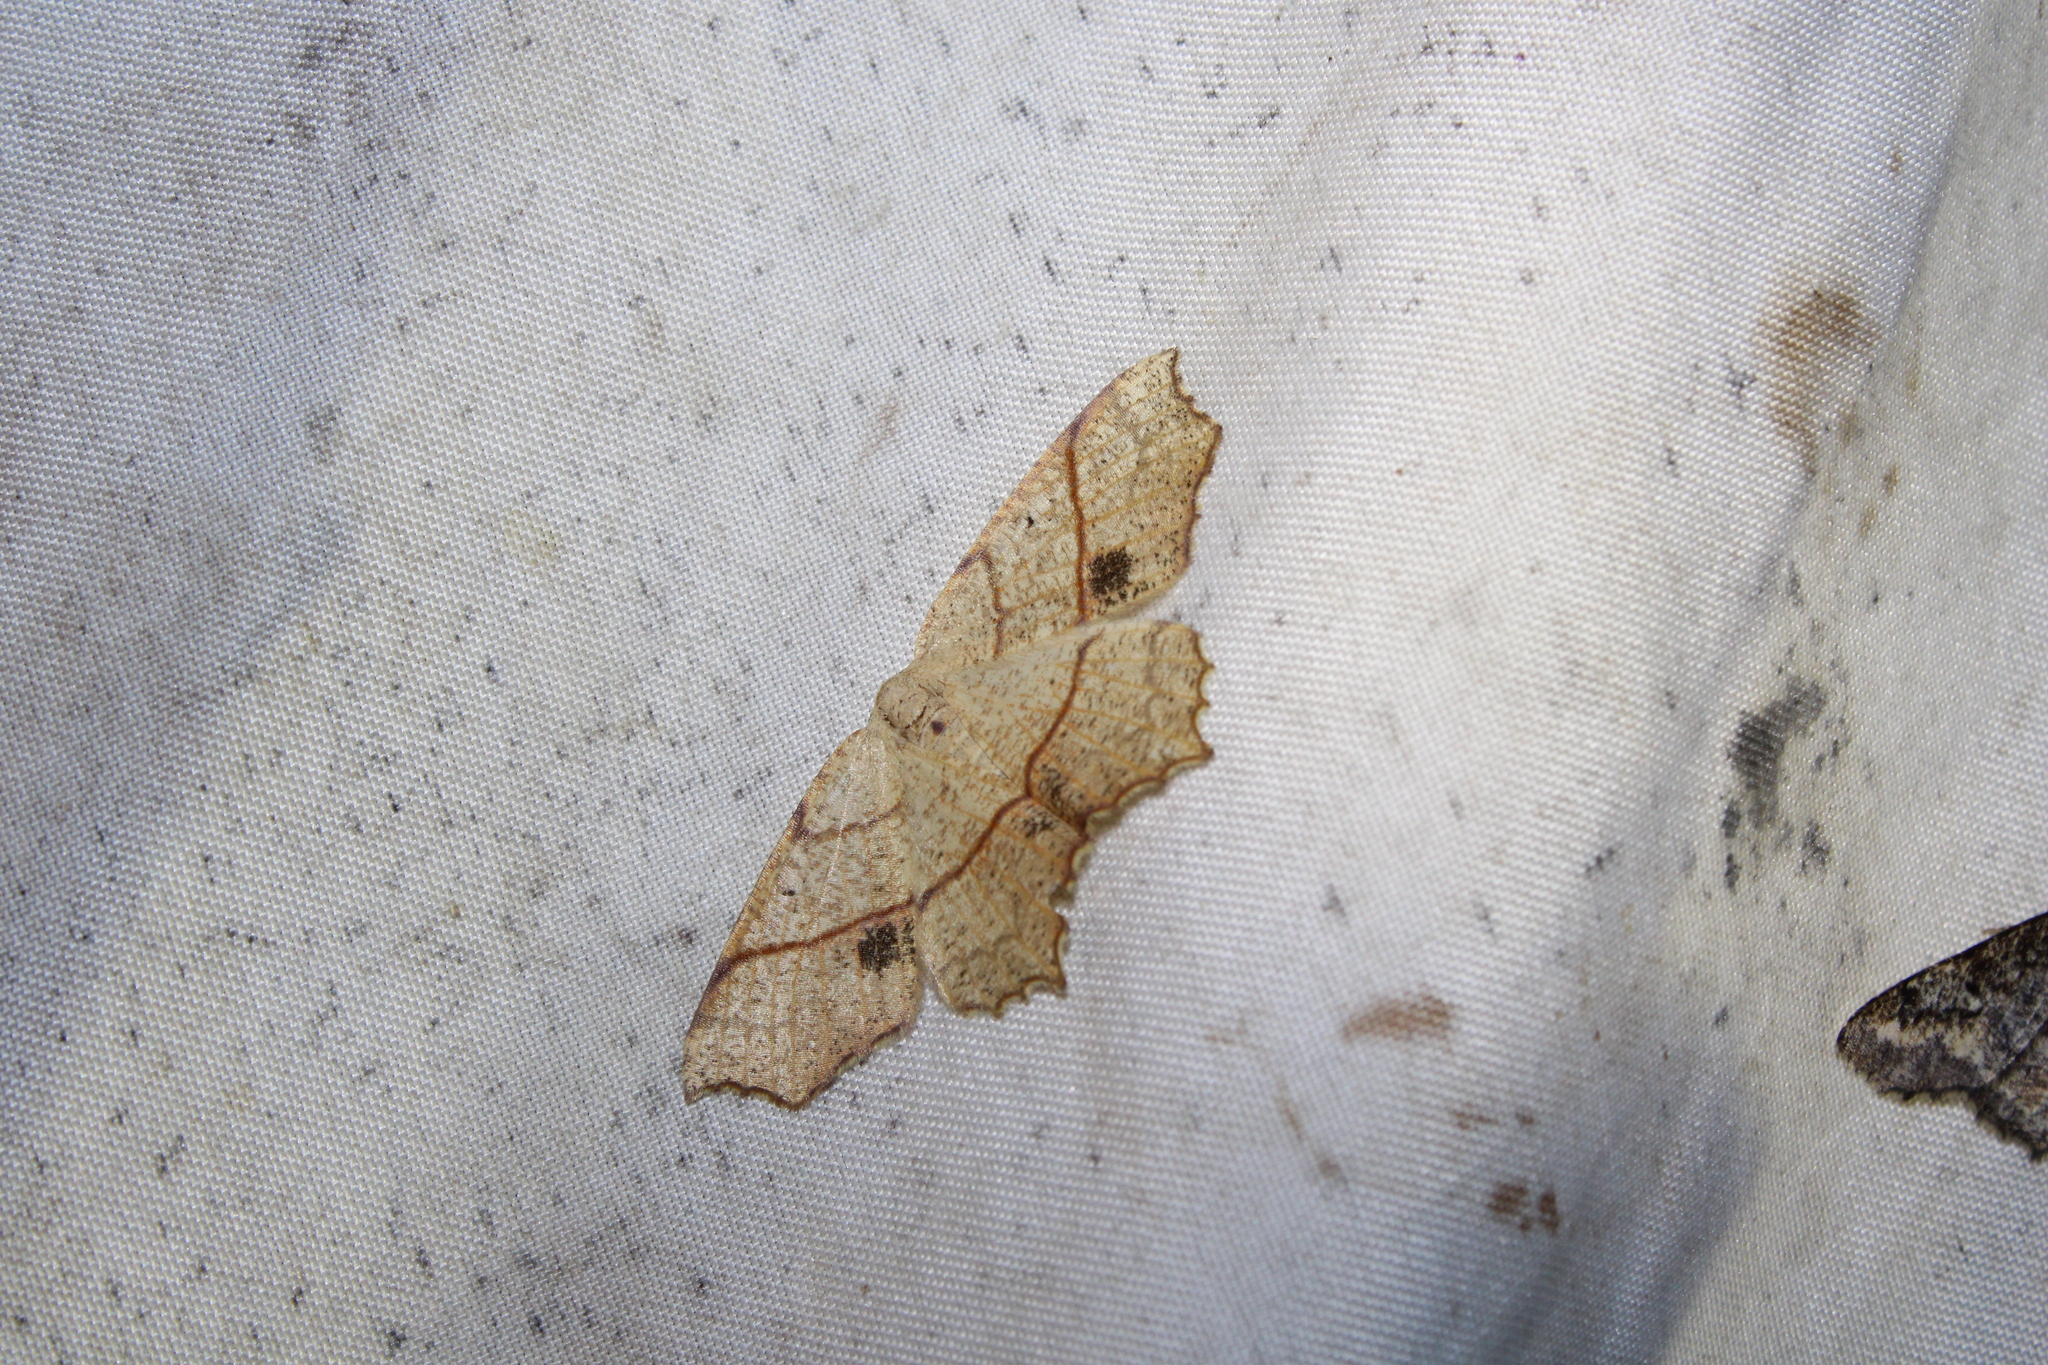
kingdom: Animalia
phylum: Arthropoda
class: Insecta
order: Lepidoptera
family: Geometridae
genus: Besma
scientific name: Besma quercivoraria
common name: Oak besma
